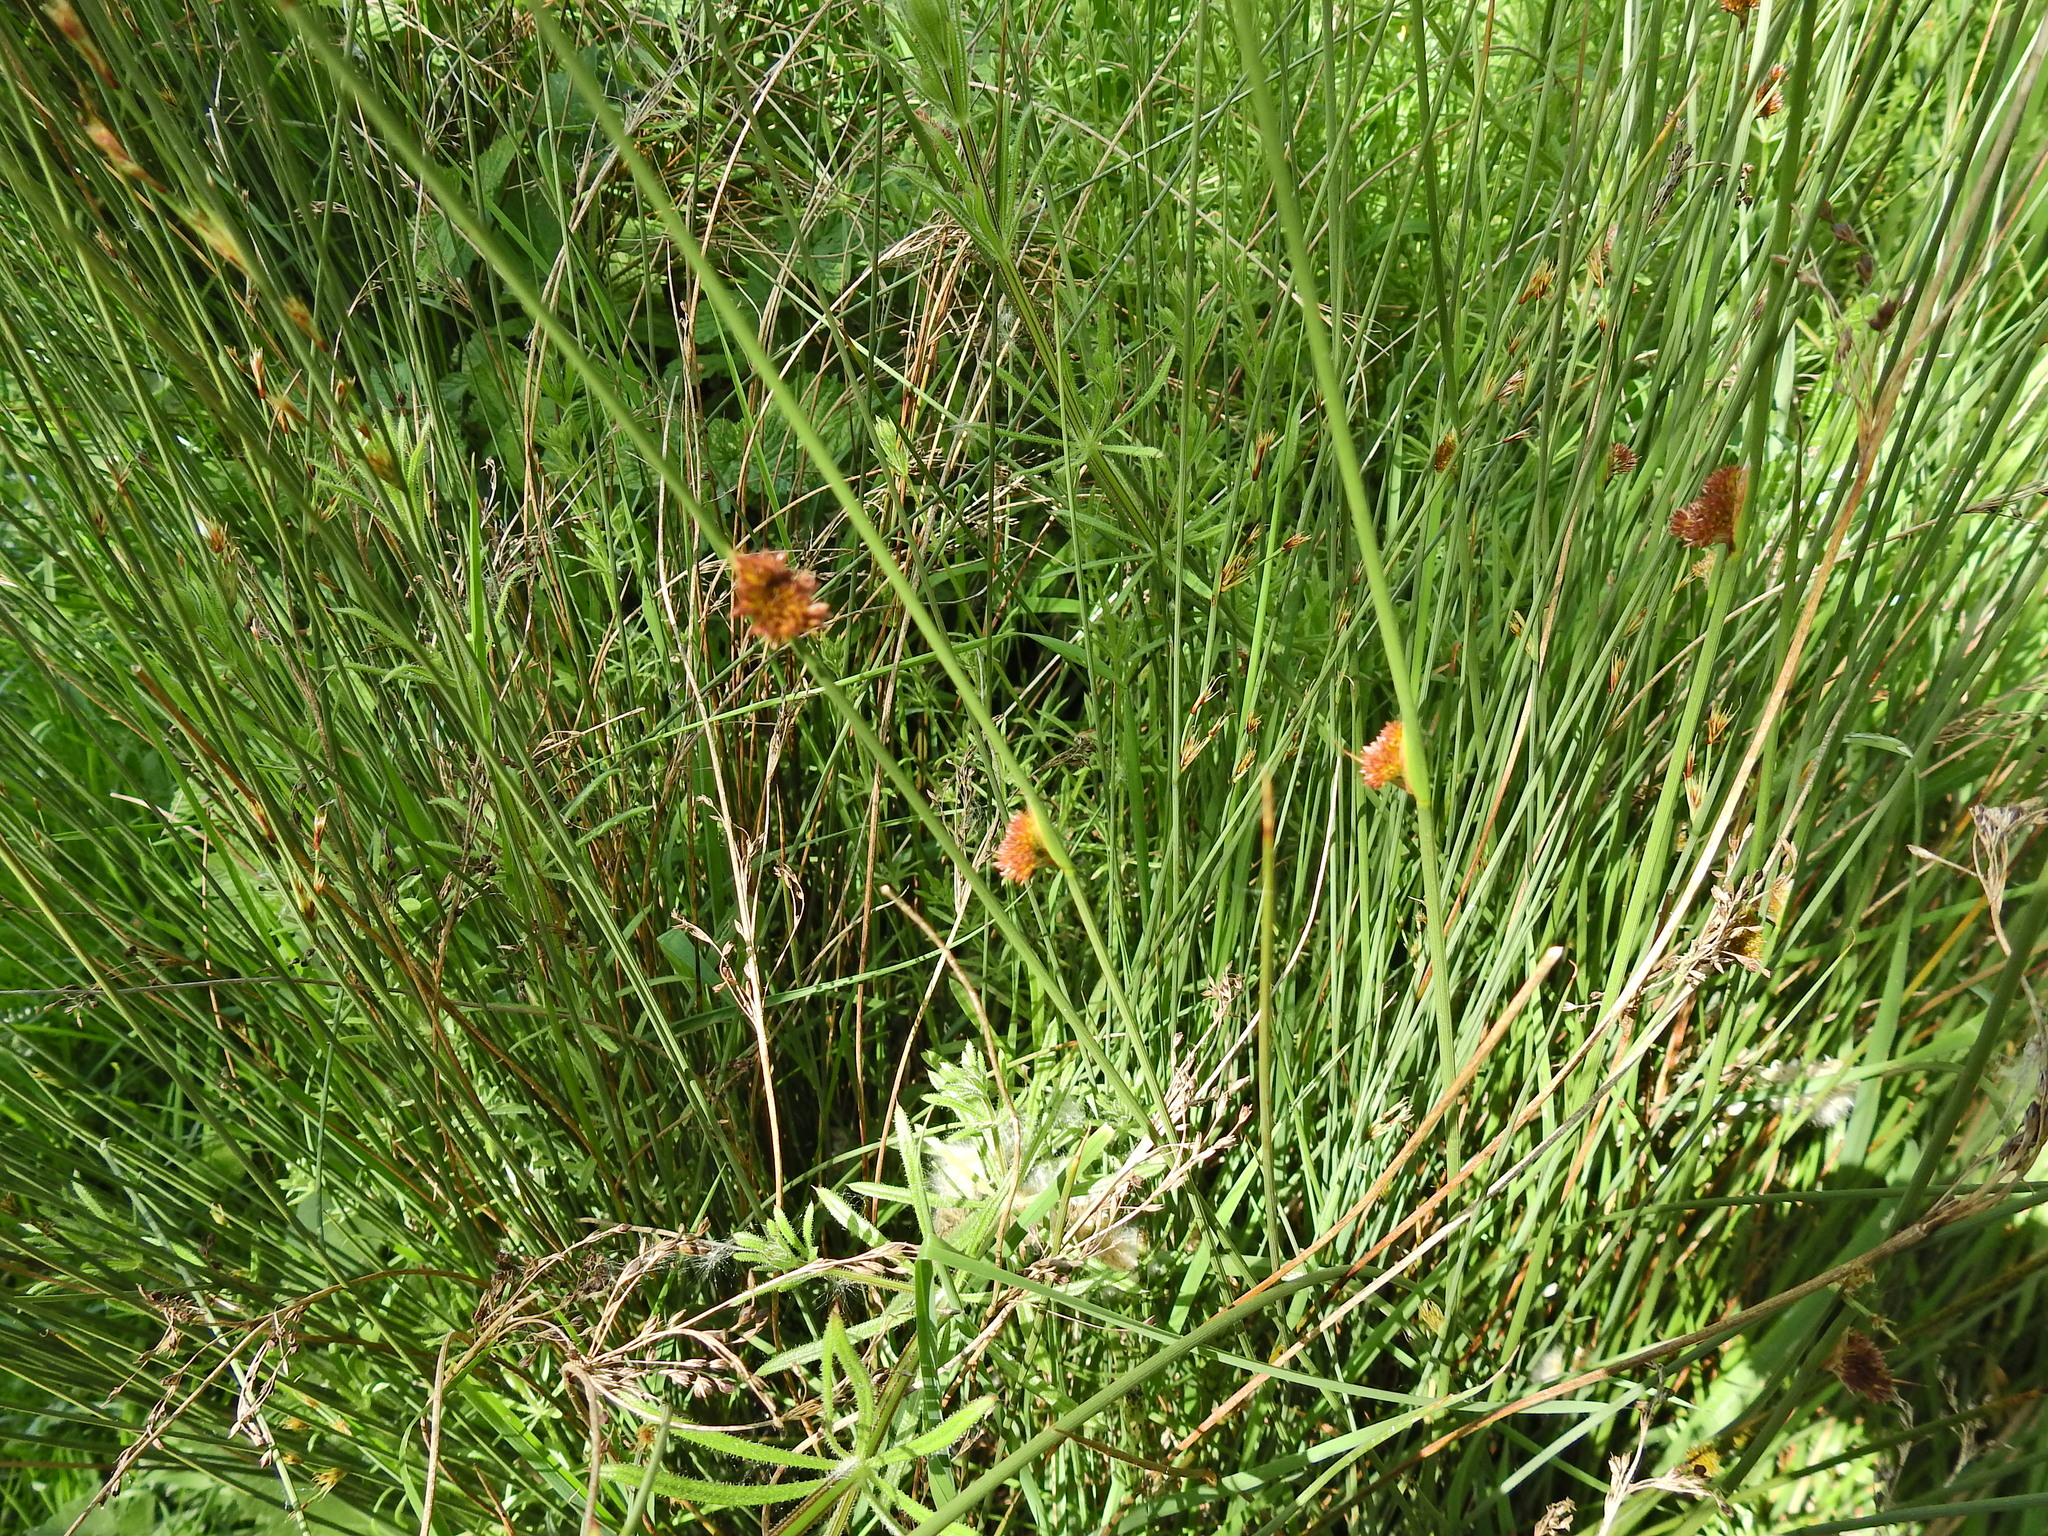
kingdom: Plantae
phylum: Tracheophyta
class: Liliopsida
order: Poales
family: Juncaceae
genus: Juncus
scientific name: Juncus conglomeratus
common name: Compact rush
